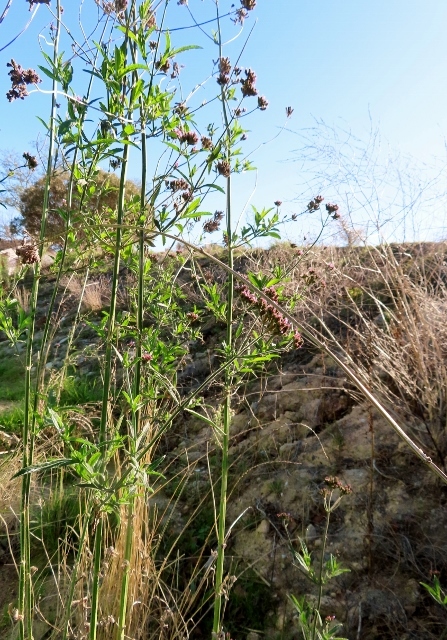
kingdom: Plantae
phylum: Tracheophyta
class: Magnoliopsida
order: Lamiales
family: Verbenaceae
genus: Verbena
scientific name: Verbena bonariensis
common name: Purpletop vervain
